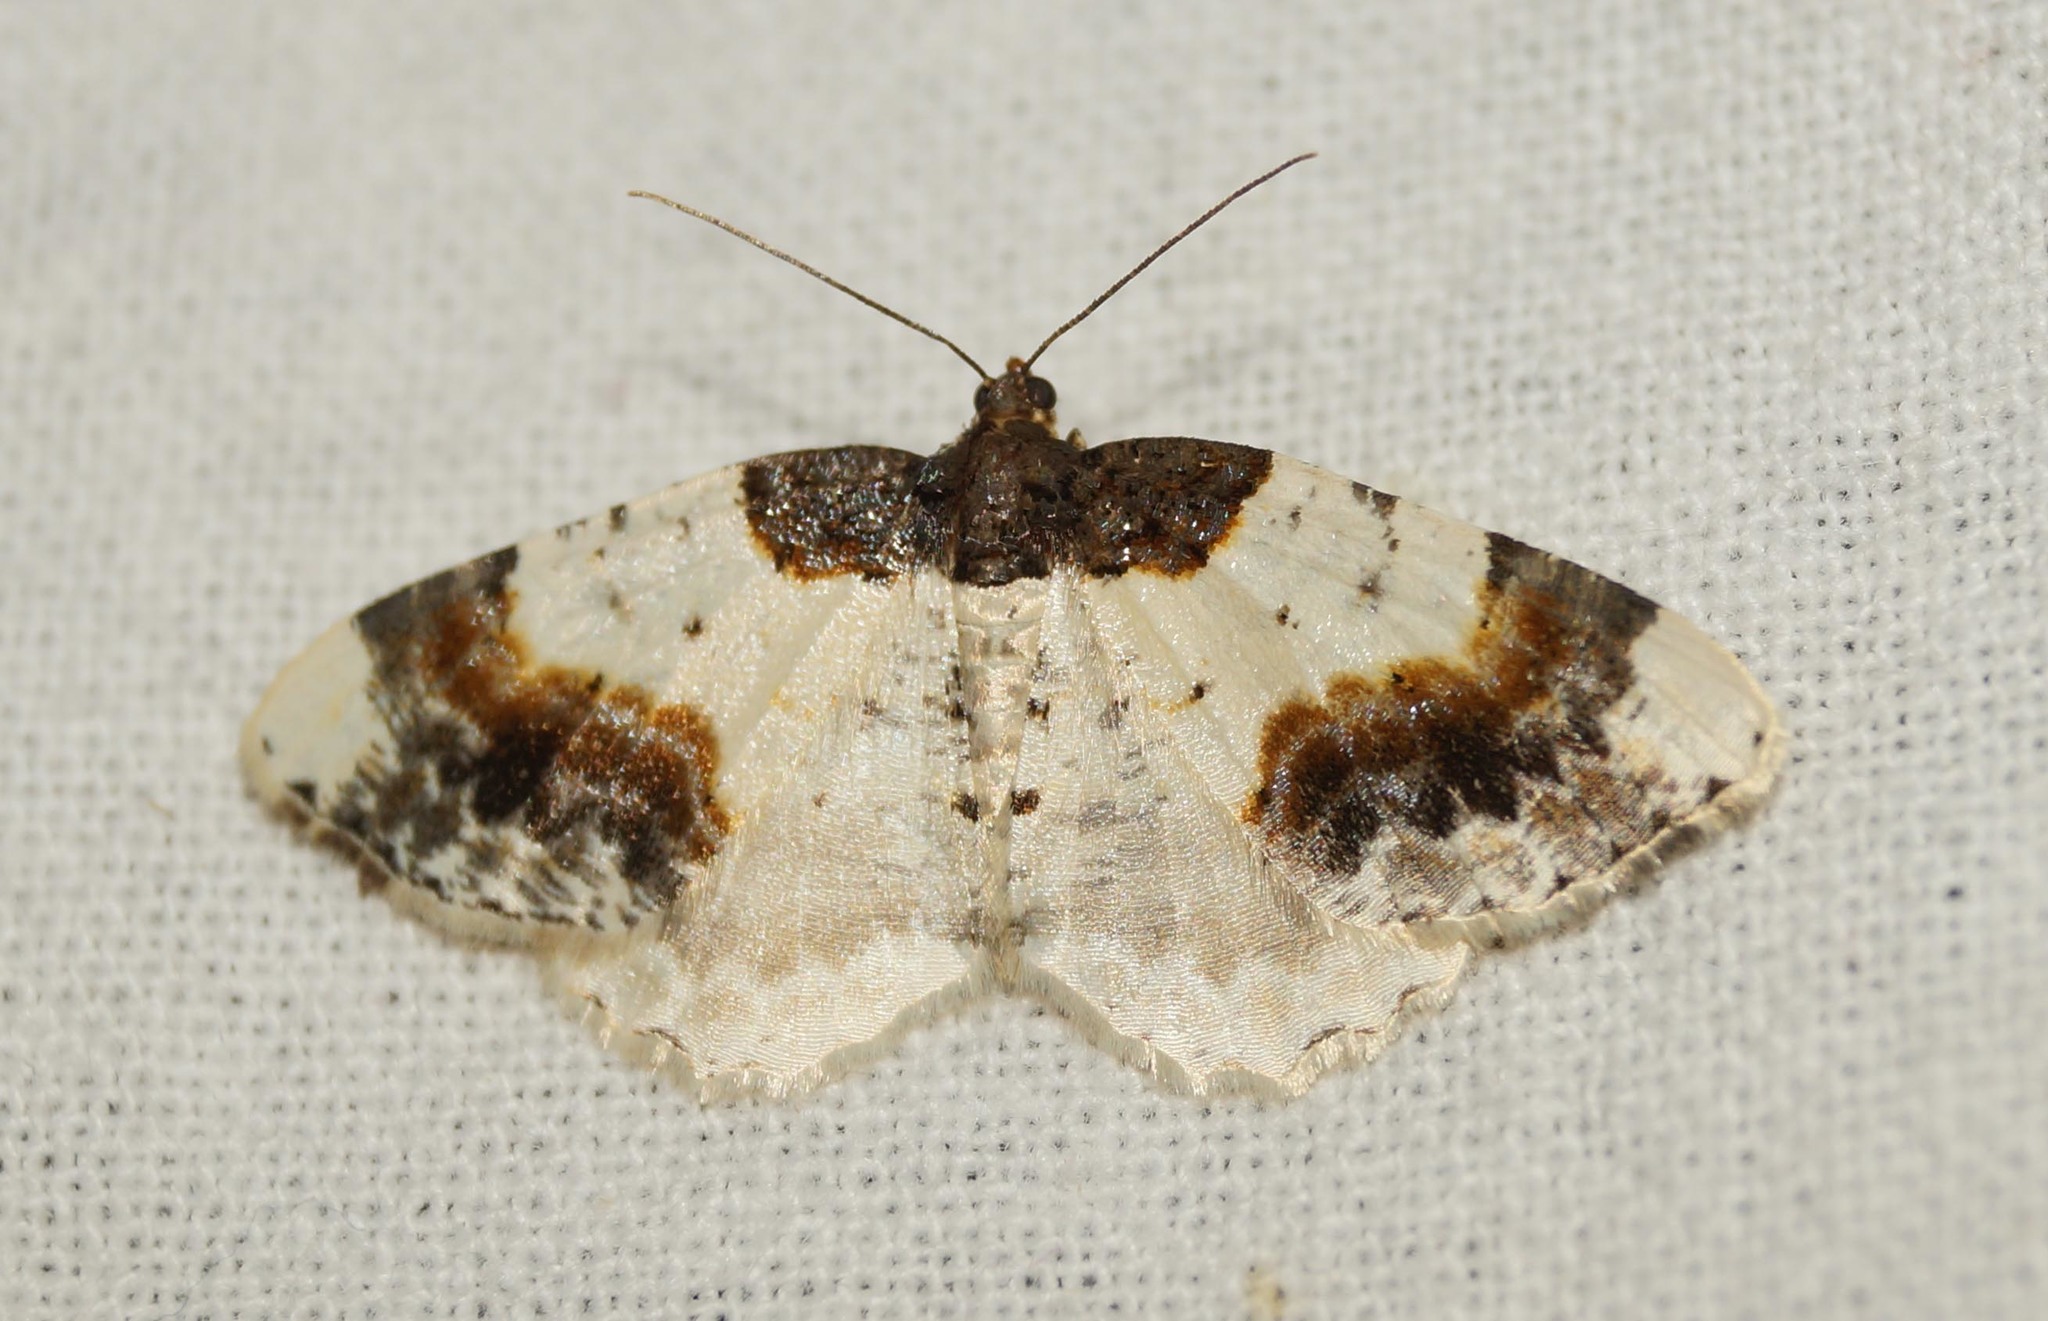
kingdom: Animalia
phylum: Arthropoda
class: Insecta
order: Lepidoptera
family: Geometridae
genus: Ligdia
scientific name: Ligdia adustata
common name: Scorched carpet
